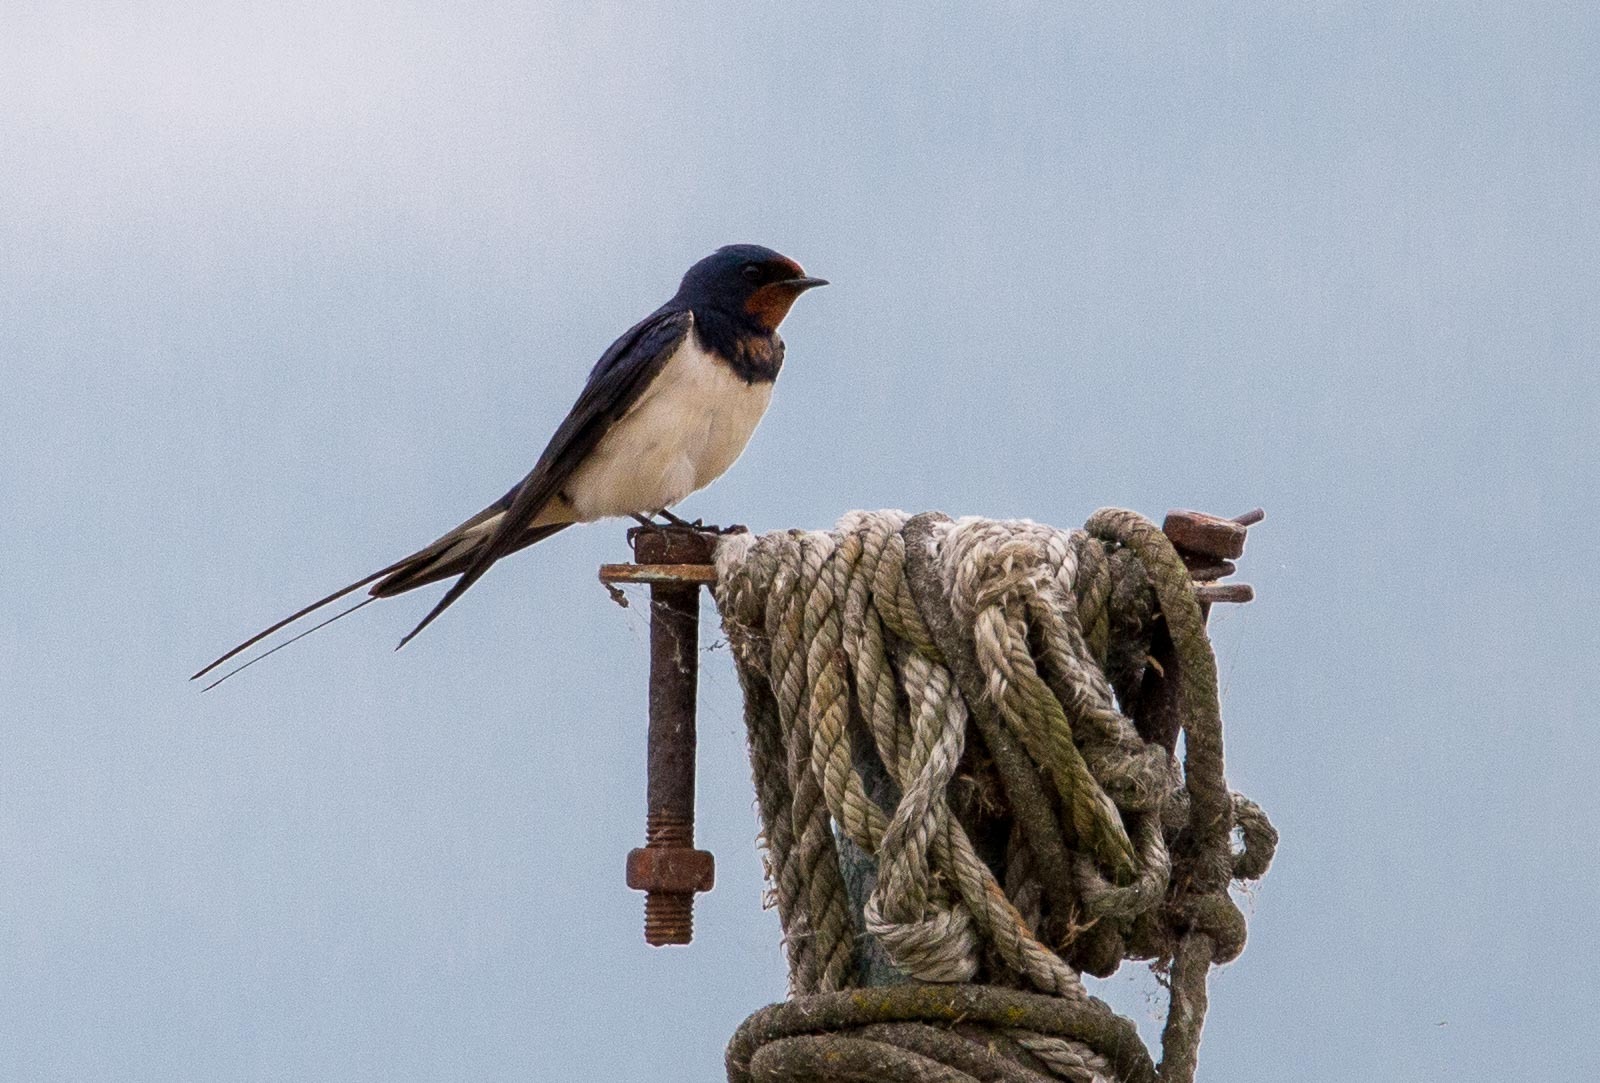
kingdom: Animalia
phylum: Chordata
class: Aves
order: Passeriformes
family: Hirundinidae
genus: Hirundo
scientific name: Hirundo rustica
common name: Barn swallow
